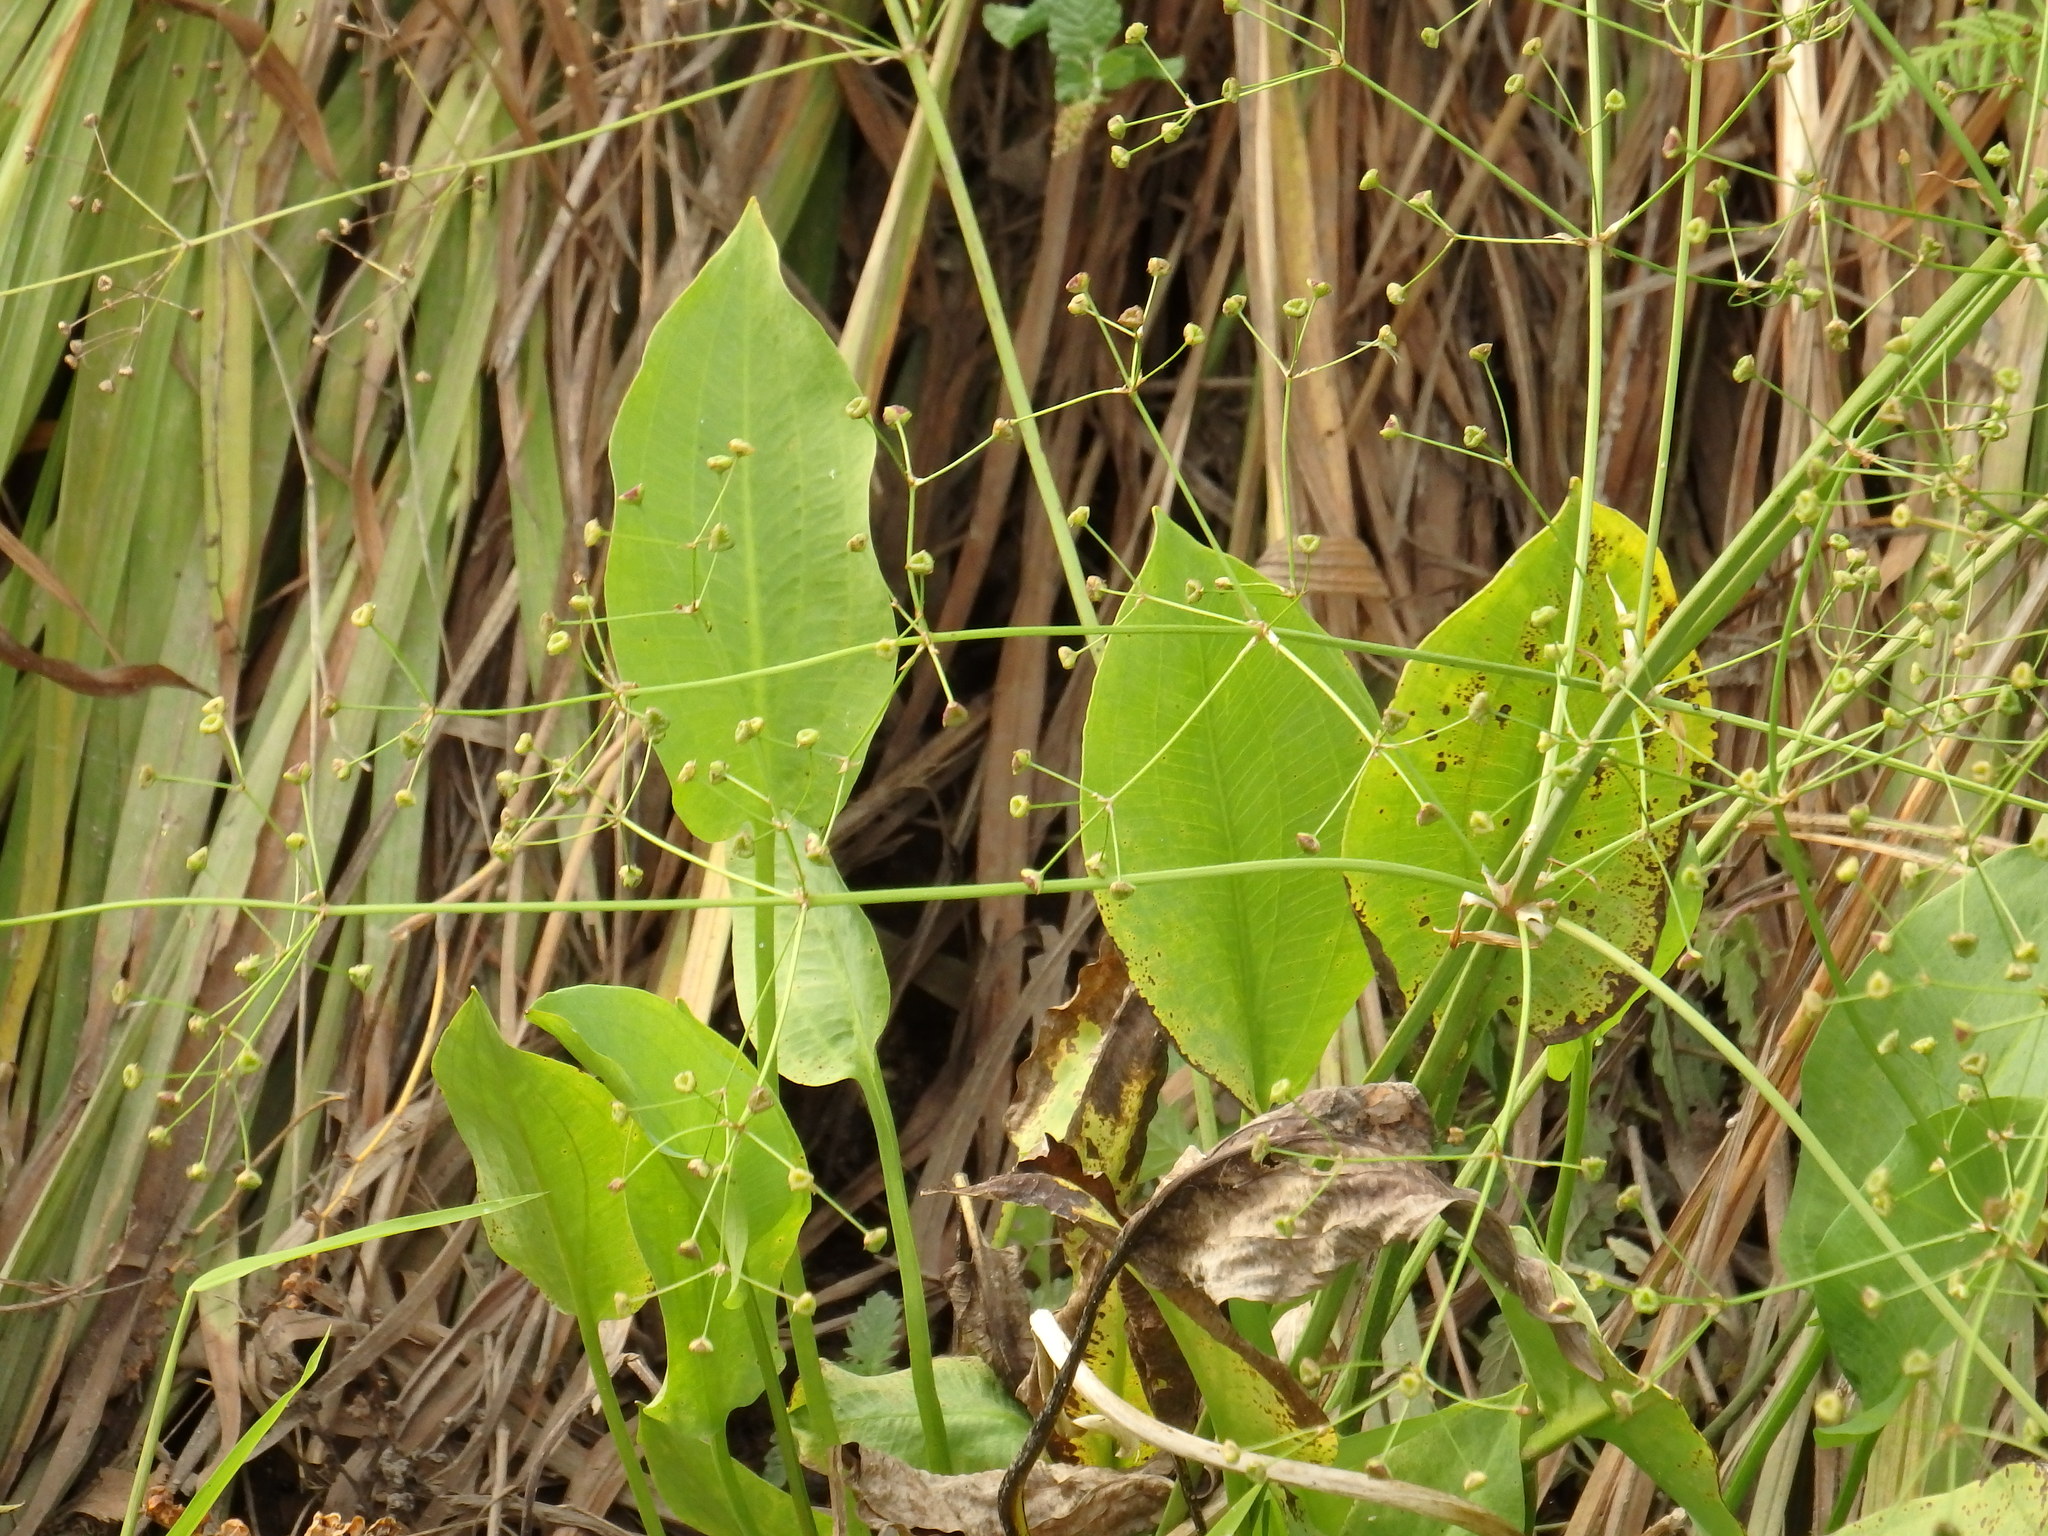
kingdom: Plantae
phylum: Tracheophyta
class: Liliopsida
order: Alismatales
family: Alismataceae
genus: Alisma
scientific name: Alisma plantago-aquatica
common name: Water-plantain
